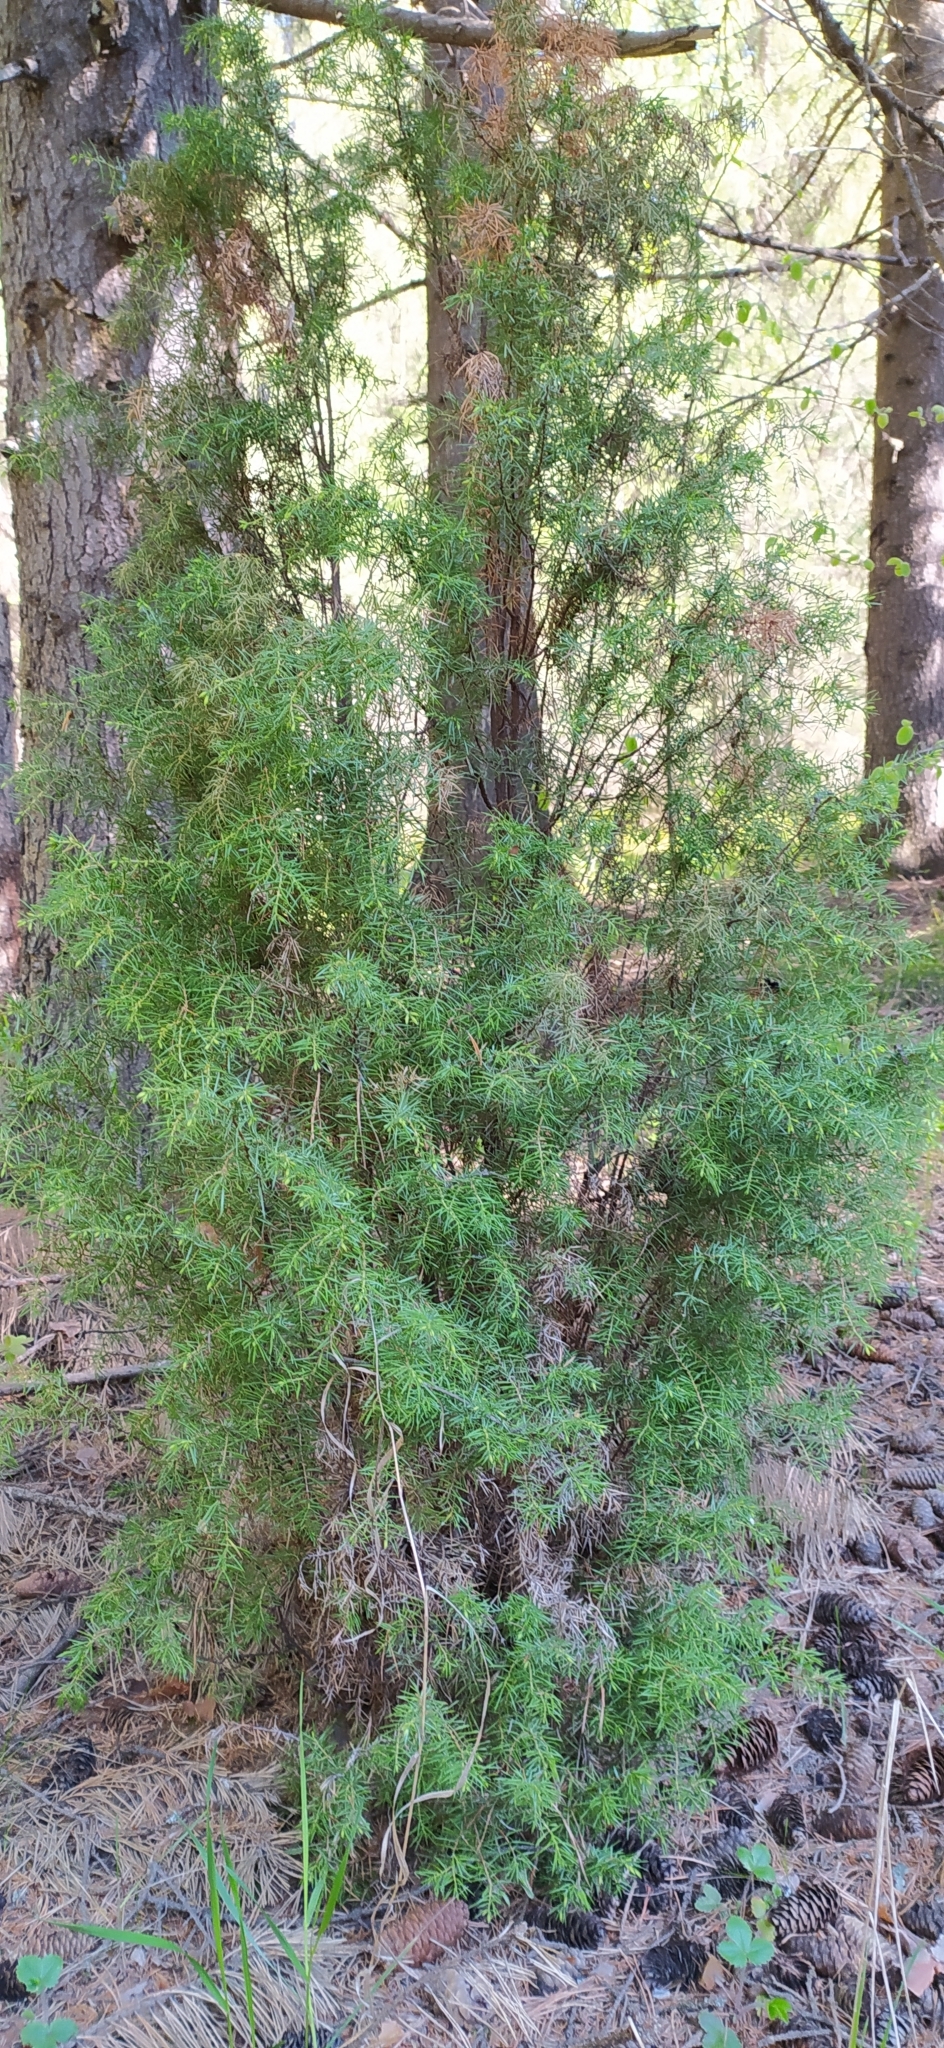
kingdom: Plantae
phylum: Tracheophyta
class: Pinopsida
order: Pinales
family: Cupressaceae
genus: Juniperus
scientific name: Juniperus communis
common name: Common juniper
